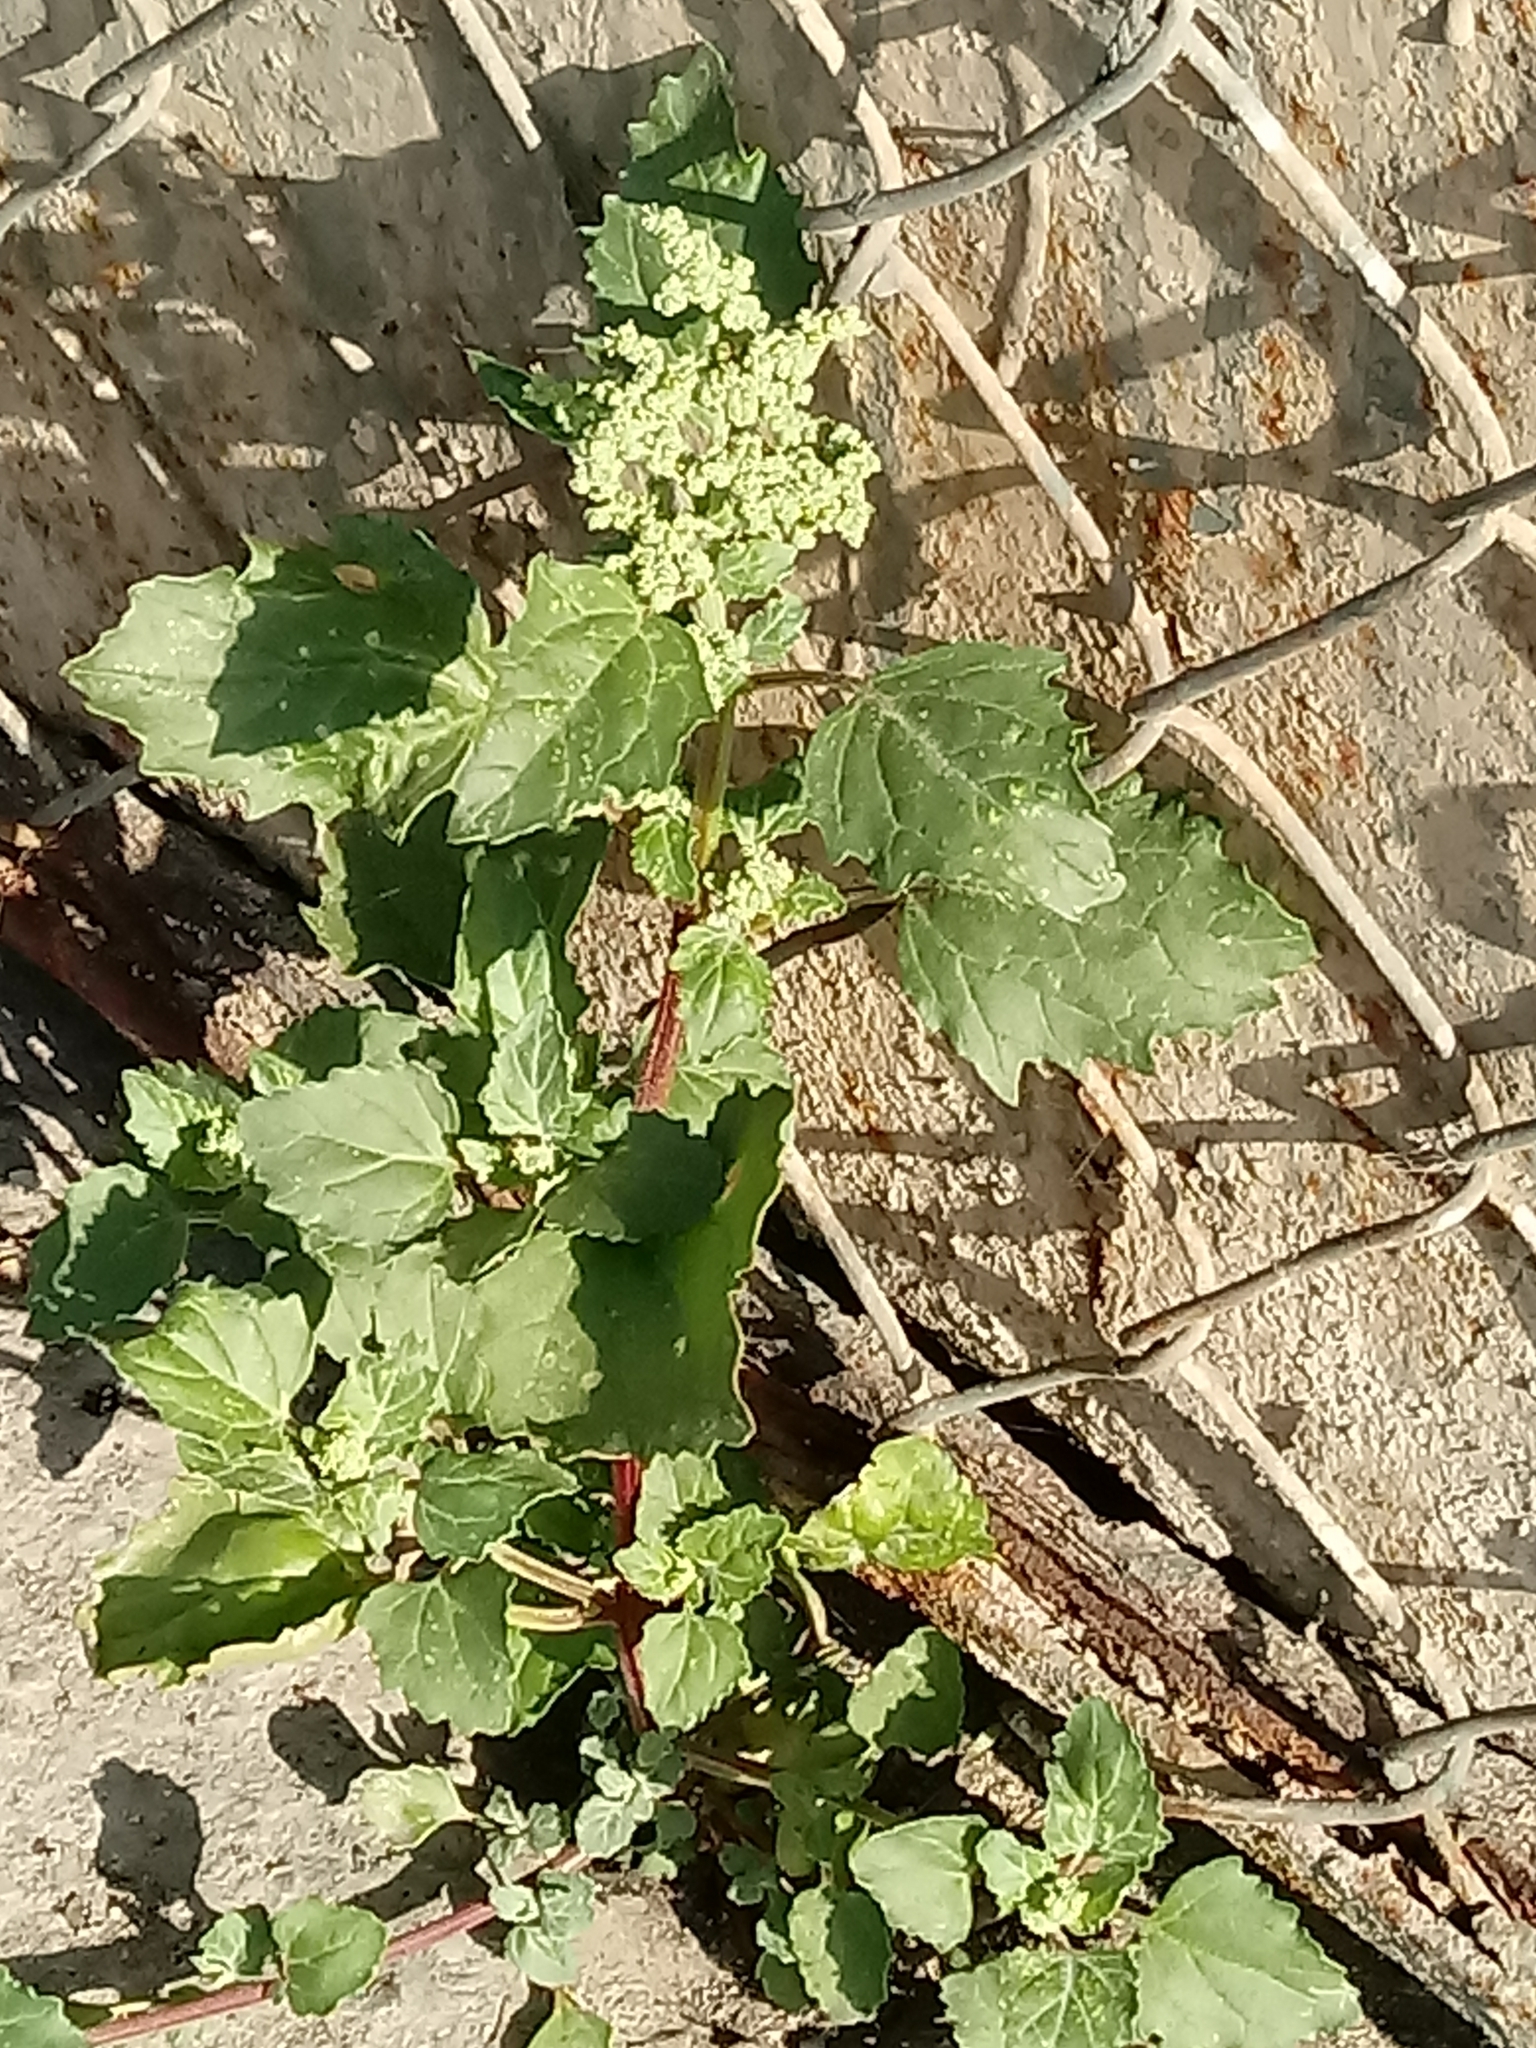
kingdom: Plantae
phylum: Tracheophyta
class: Magnoliopsida
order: Caryophyllales
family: Amaranthaceae
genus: Chenopodiastrum
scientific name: Chenopodiastrum murale
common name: Sowbane
